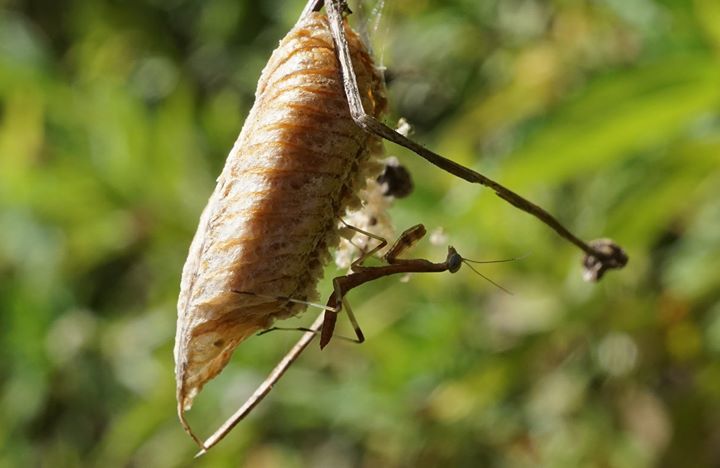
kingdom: Animalia
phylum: Arthropoda
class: Insecta
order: Mantodea
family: Mantidae
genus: Stagmomantis
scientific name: Stagmomantis carolina
